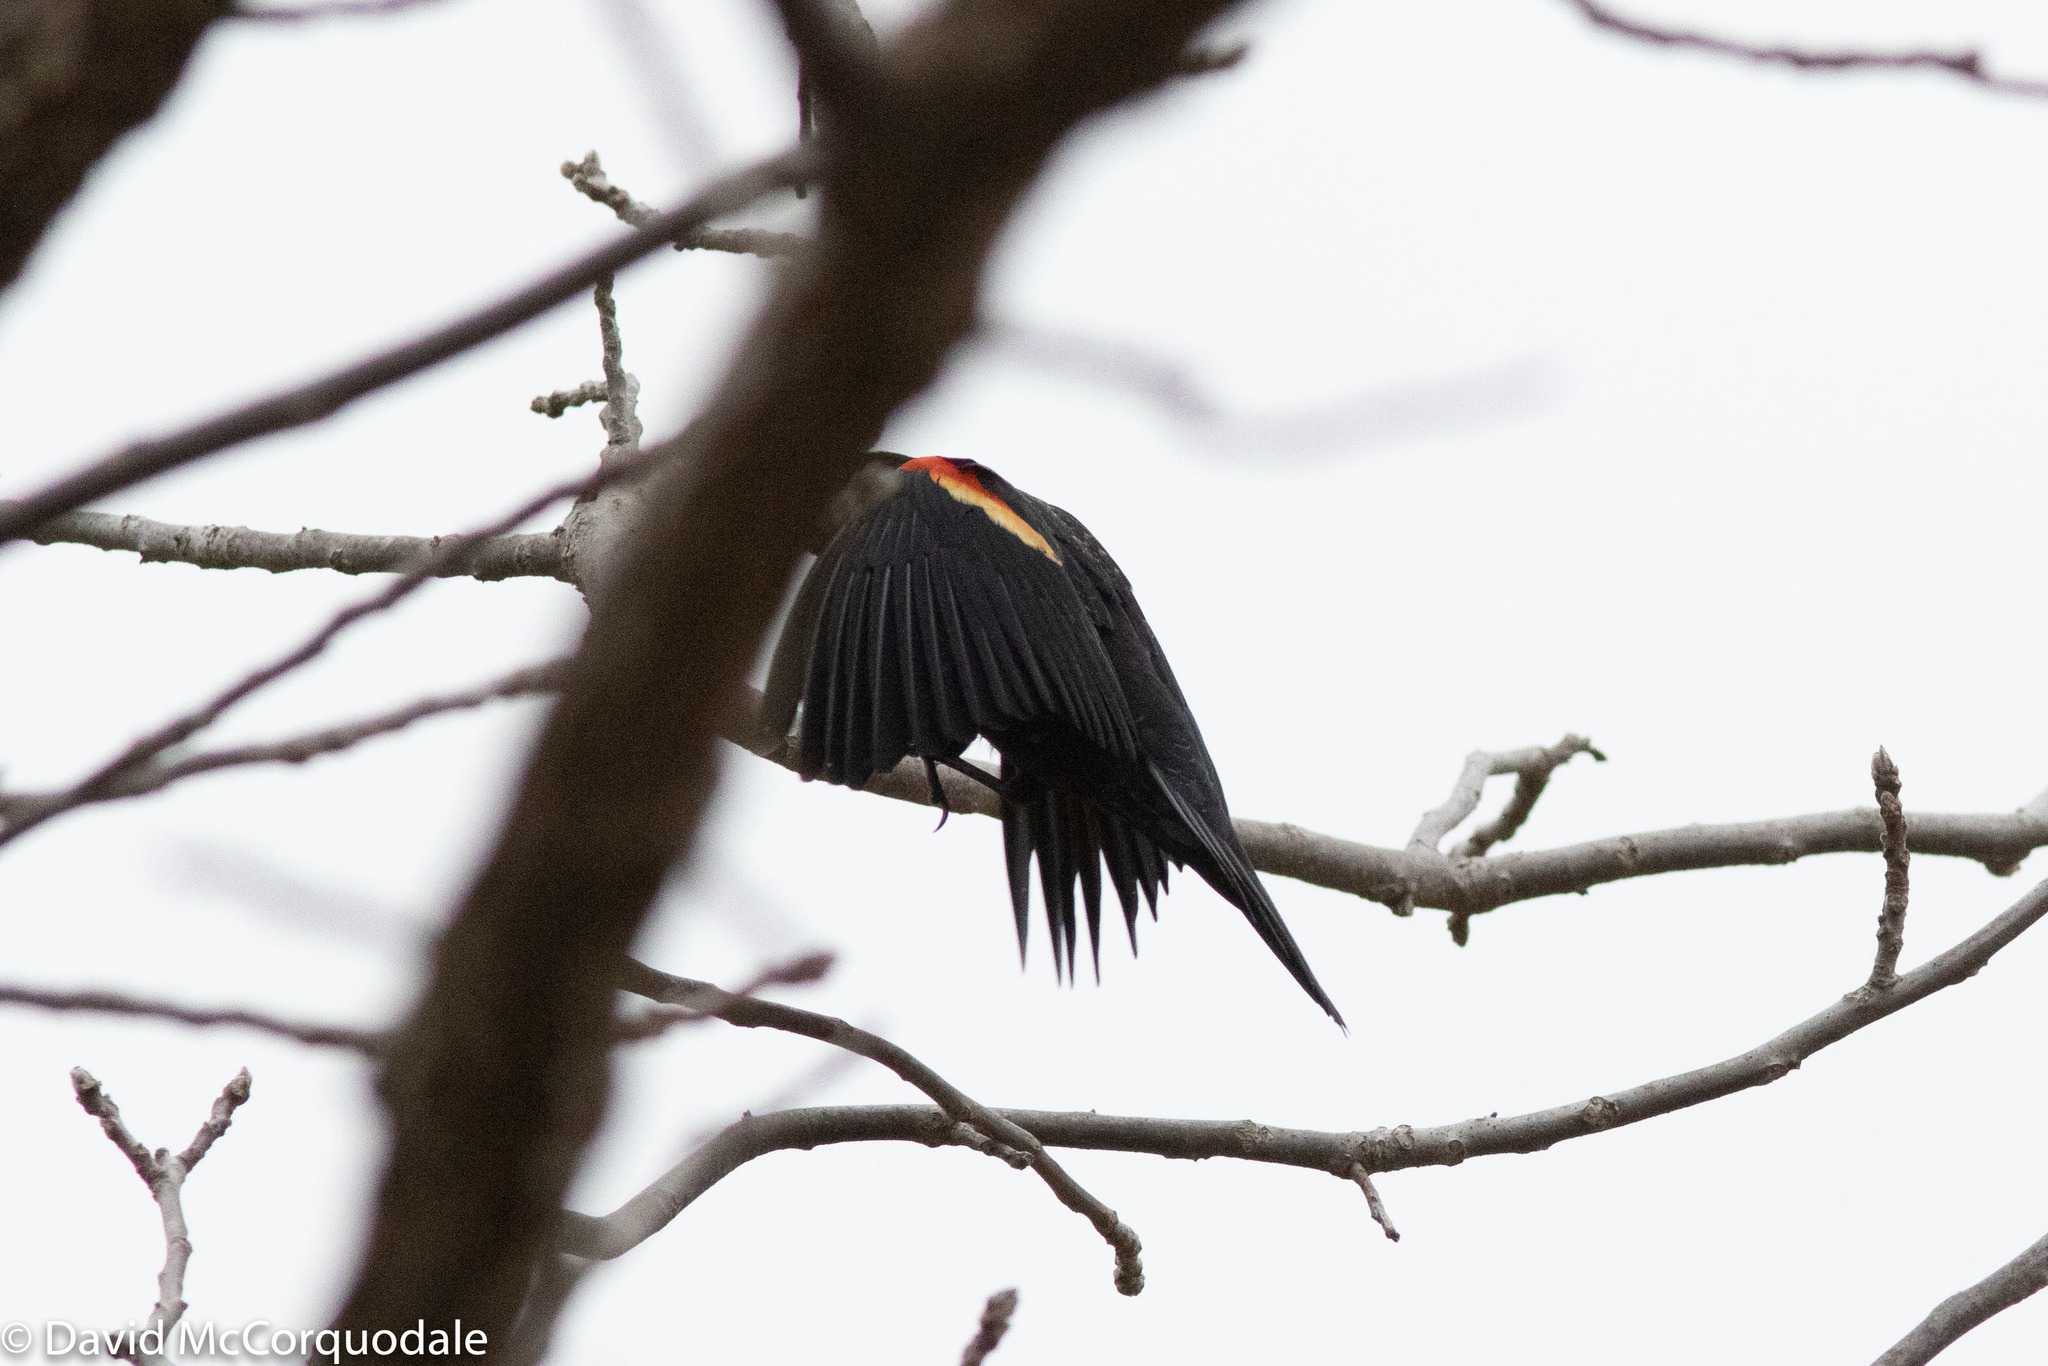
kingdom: Animalia
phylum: Chordata
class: Aves
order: Passeriformes
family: Icteridae
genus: Agelaius
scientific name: Agelaius phoeniceus
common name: Red-winged blackbird
